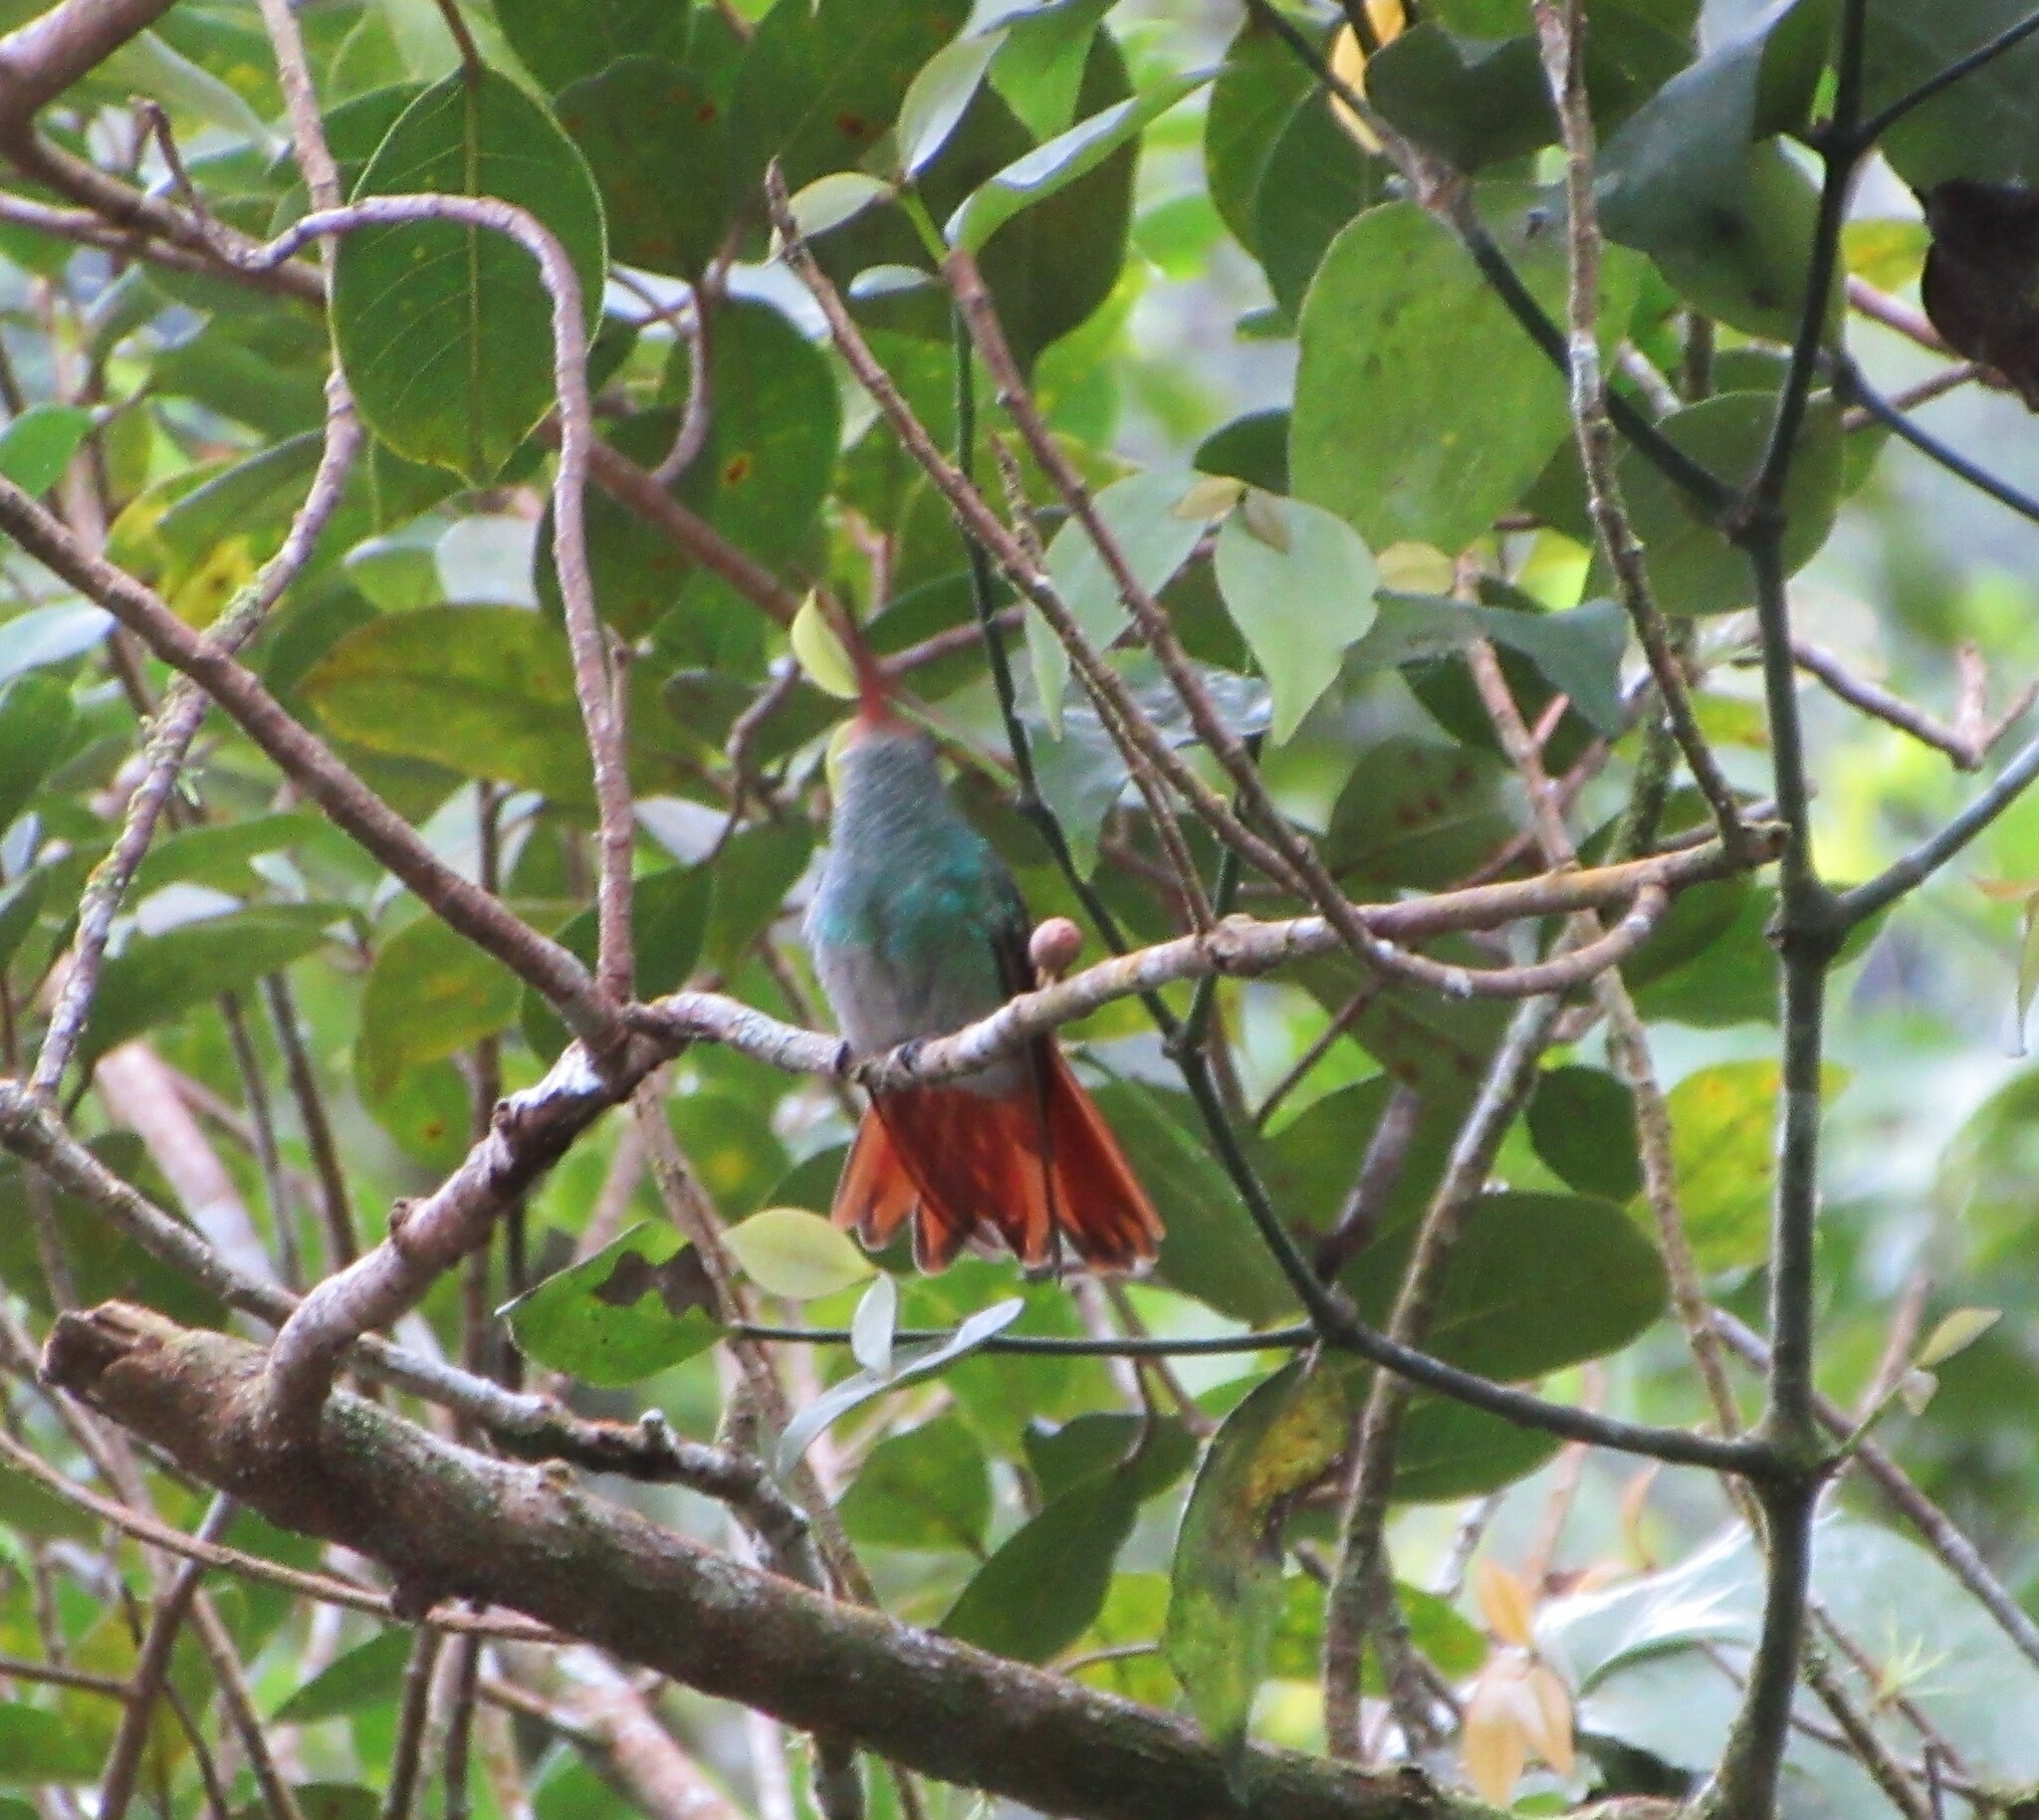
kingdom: Animalia
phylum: Chordata
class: Aves
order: Apodiformes
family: Trochilidae
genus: Amazilia
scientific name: Amazilia tzacatl
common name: Rufous-tailed hummingbird
